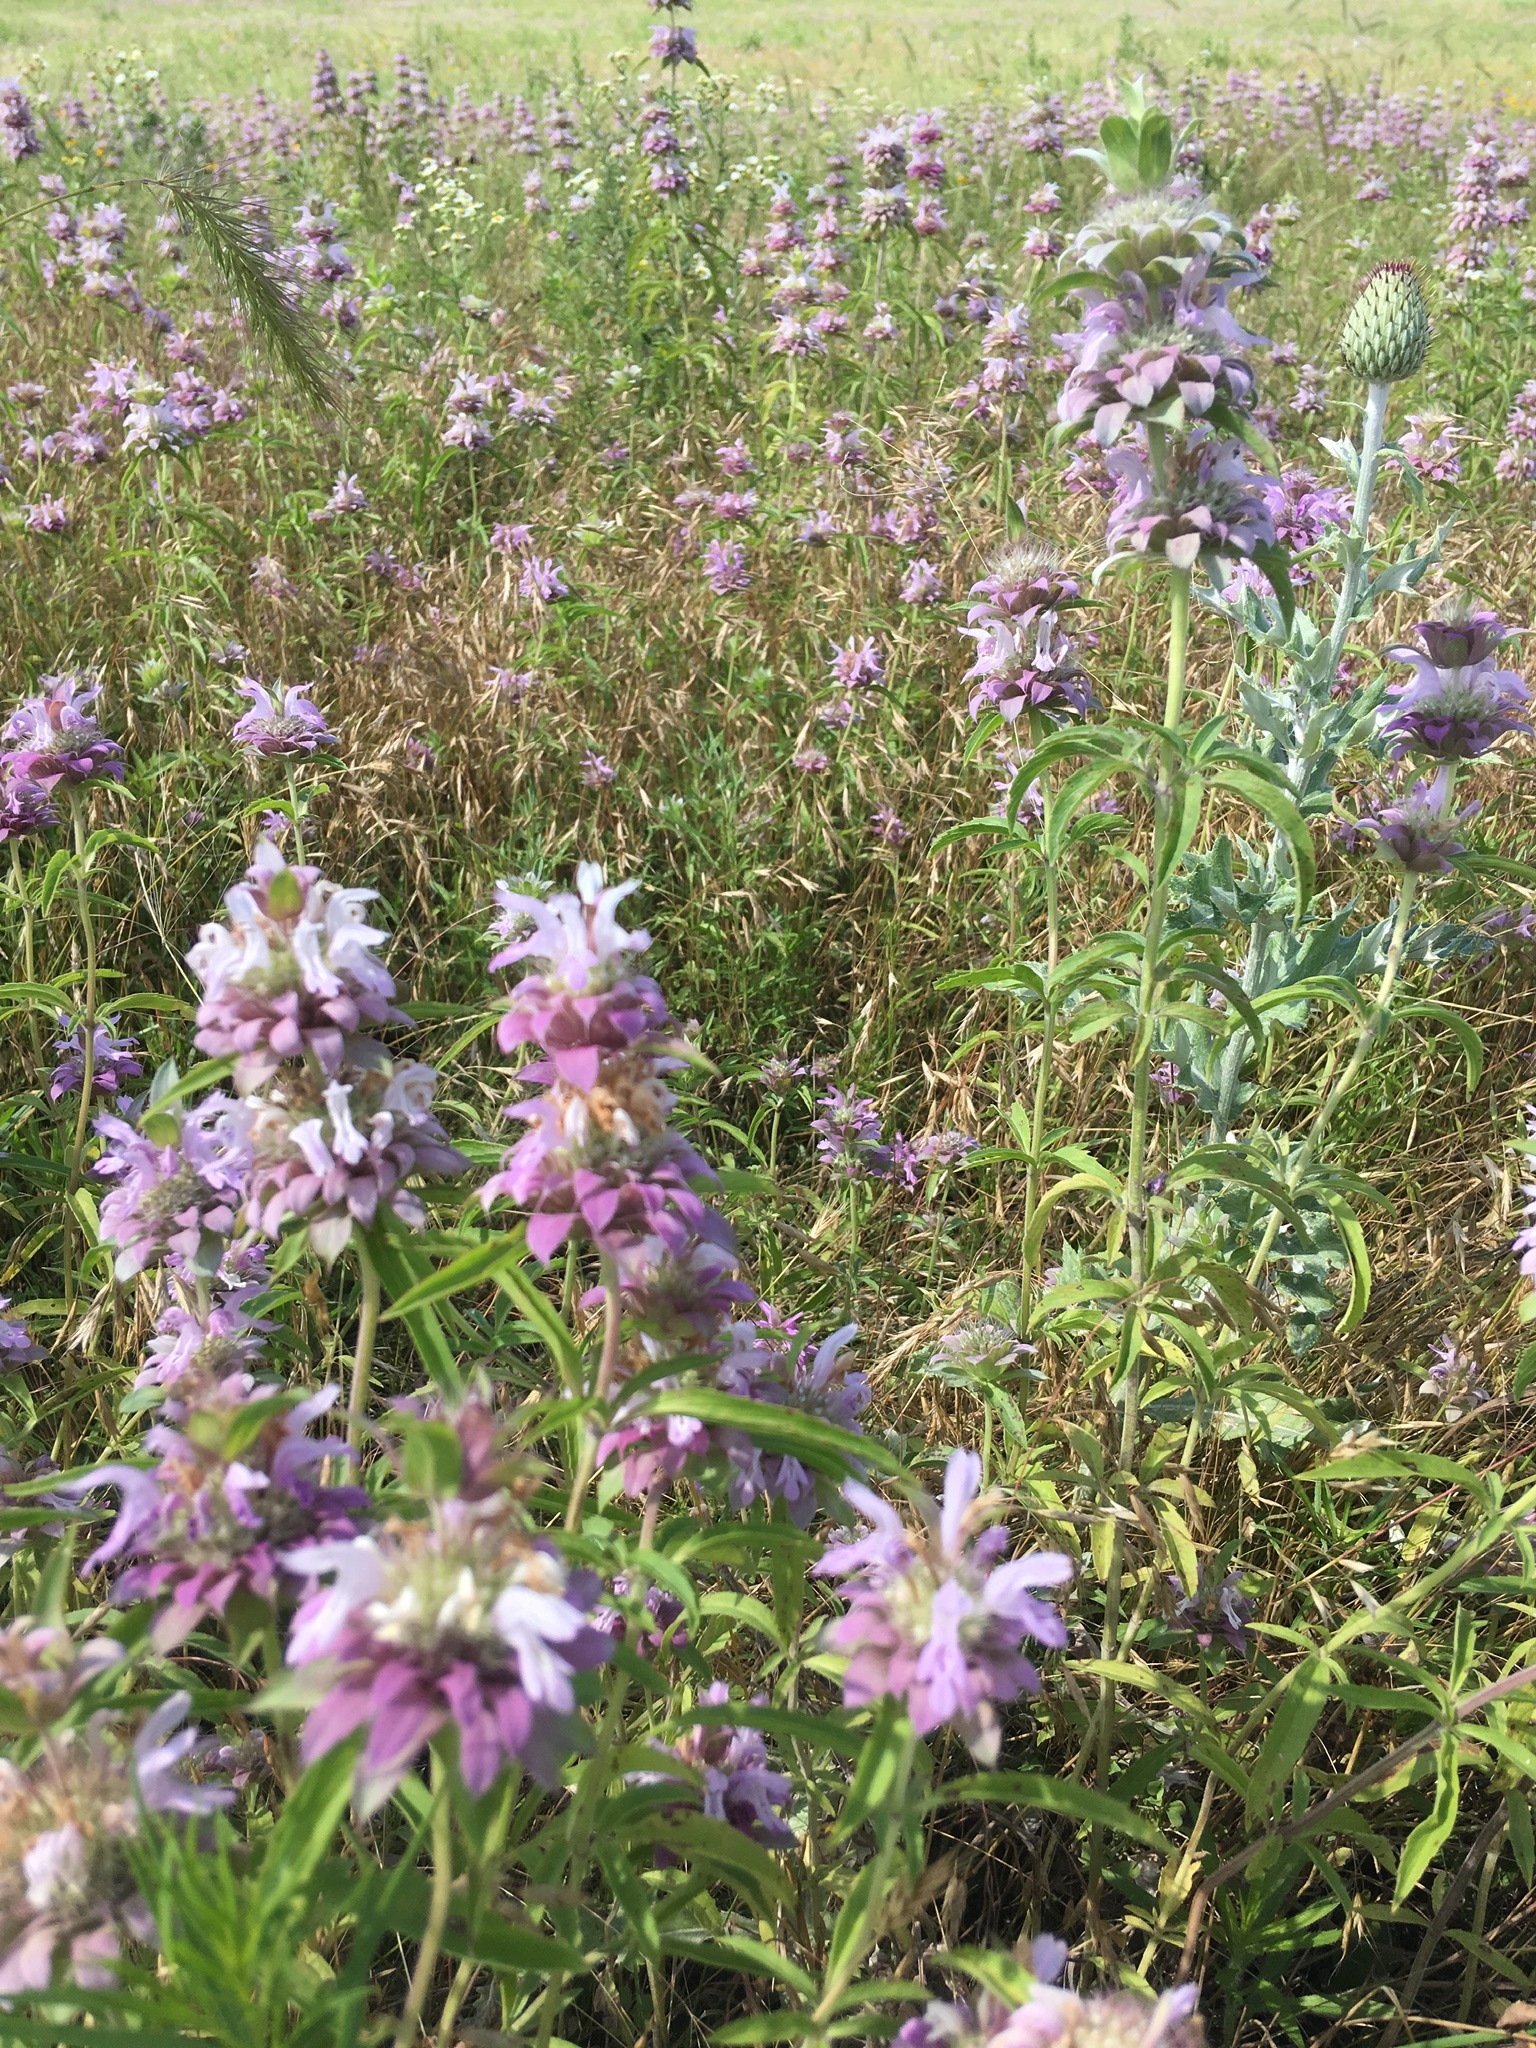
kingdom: Plantae
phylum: Tracheophyta
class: Magnoliopsida
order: Lamiales
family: Lamiaceae
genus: Monarda
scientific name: Monarda citriodora
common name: Lemon beebalm
